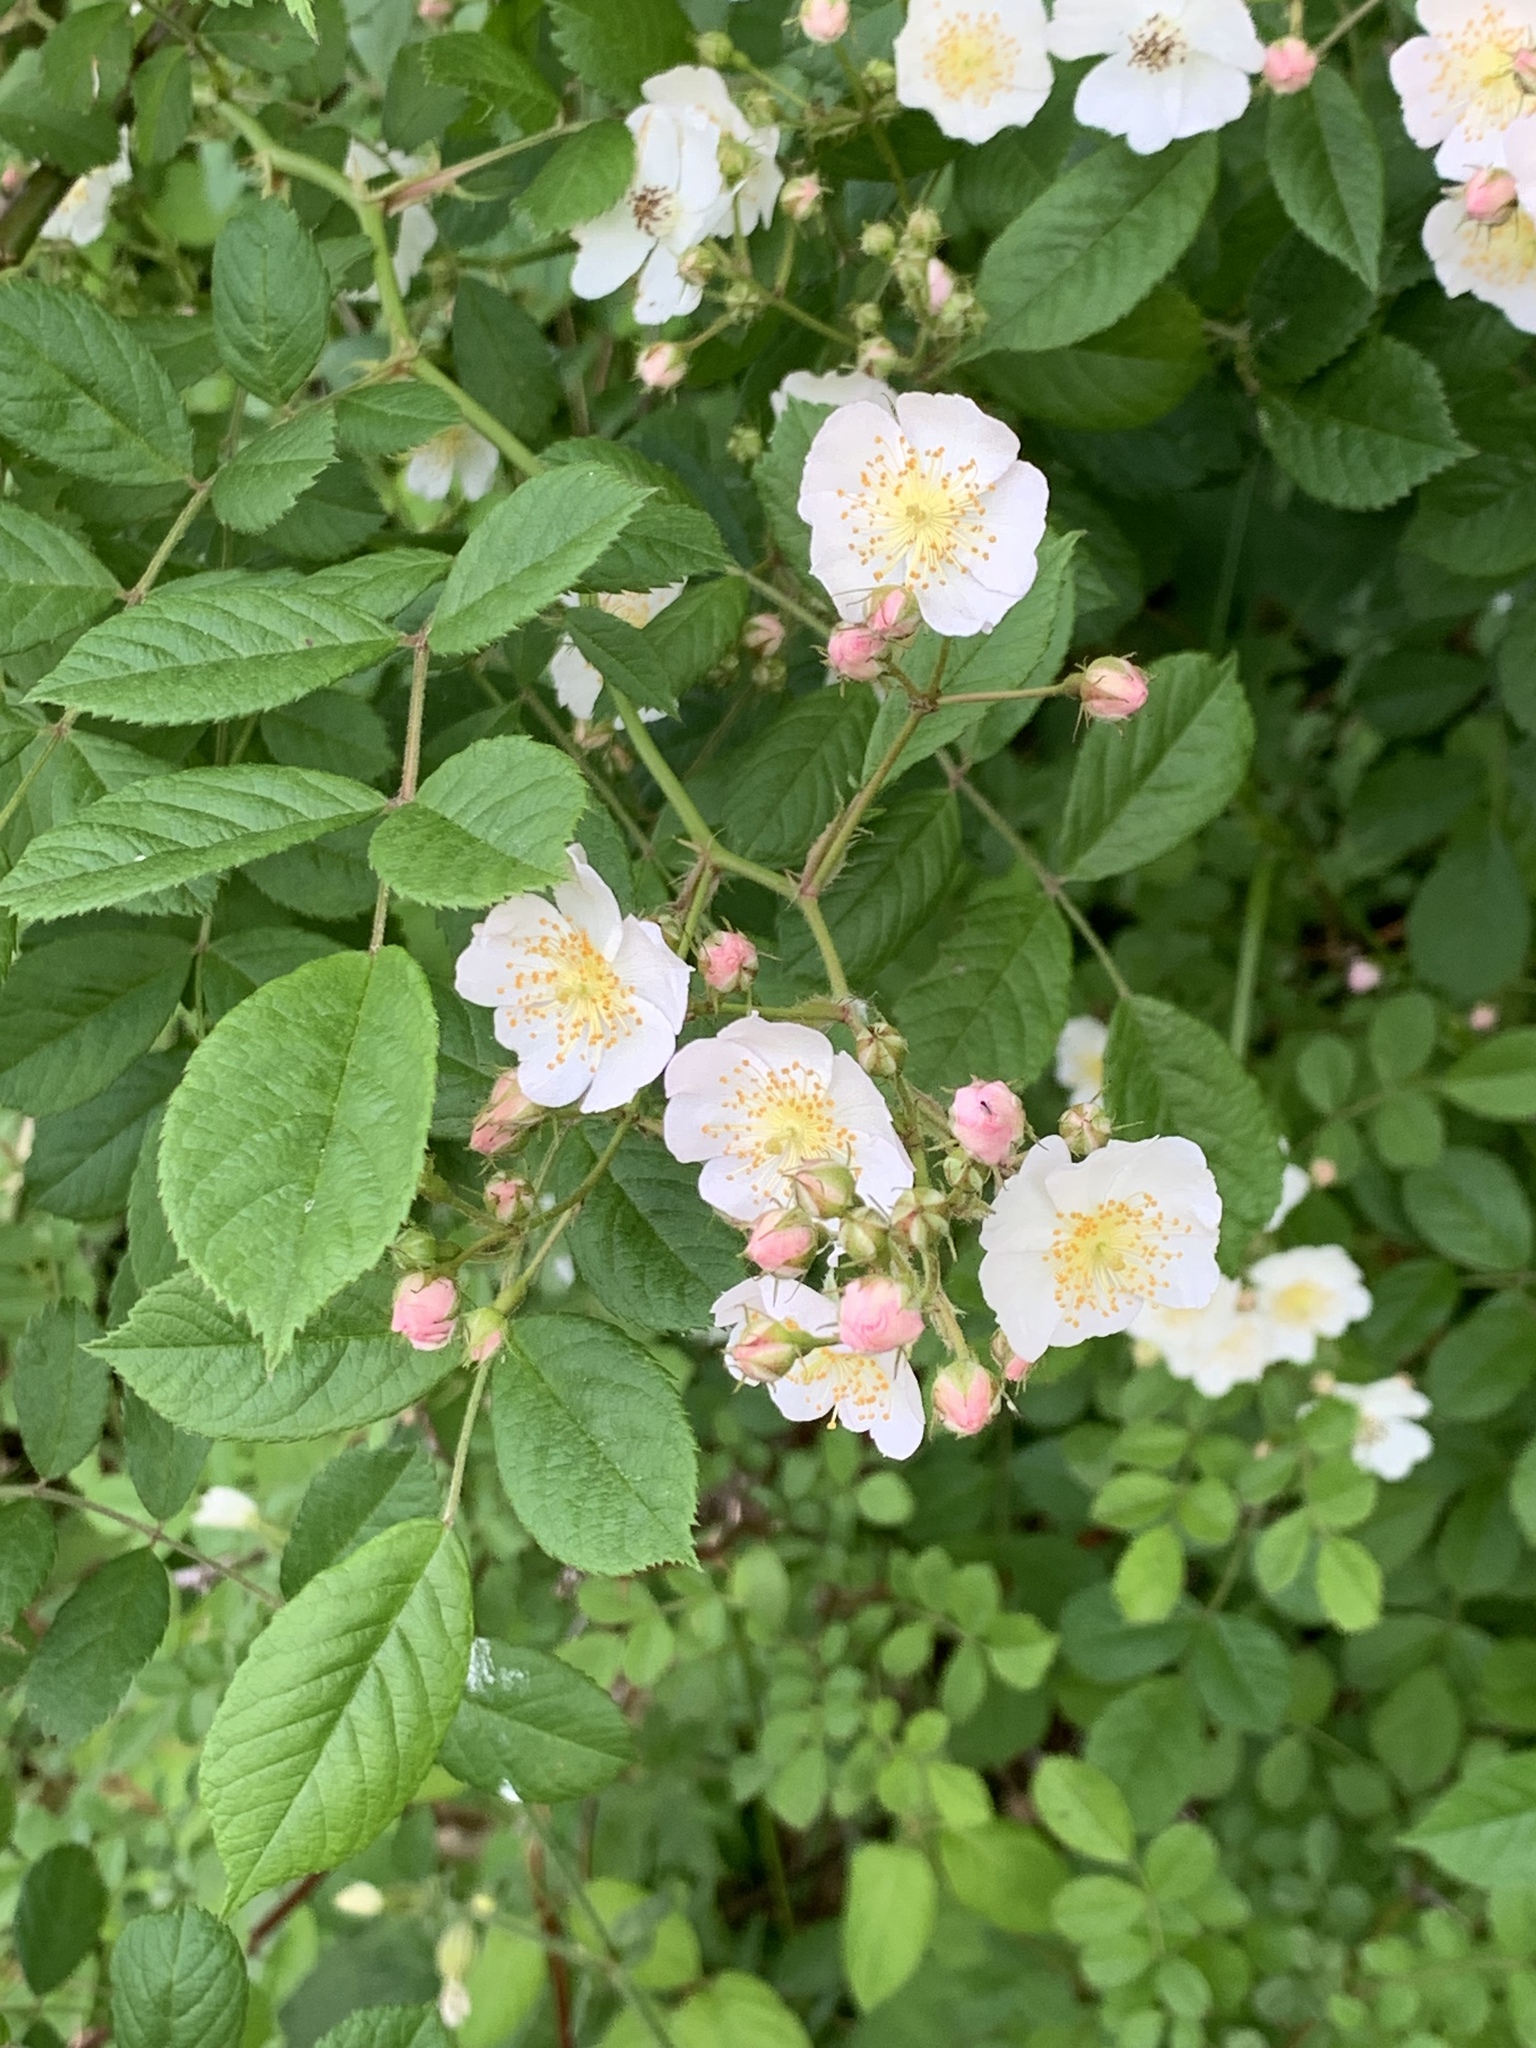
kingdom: Plantae
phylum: Tracheophyta
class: Magnoliopsida
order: Rosales
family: Rosaceae
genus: Rosa
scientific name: Rosa multiflora
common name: Multiflora rose
